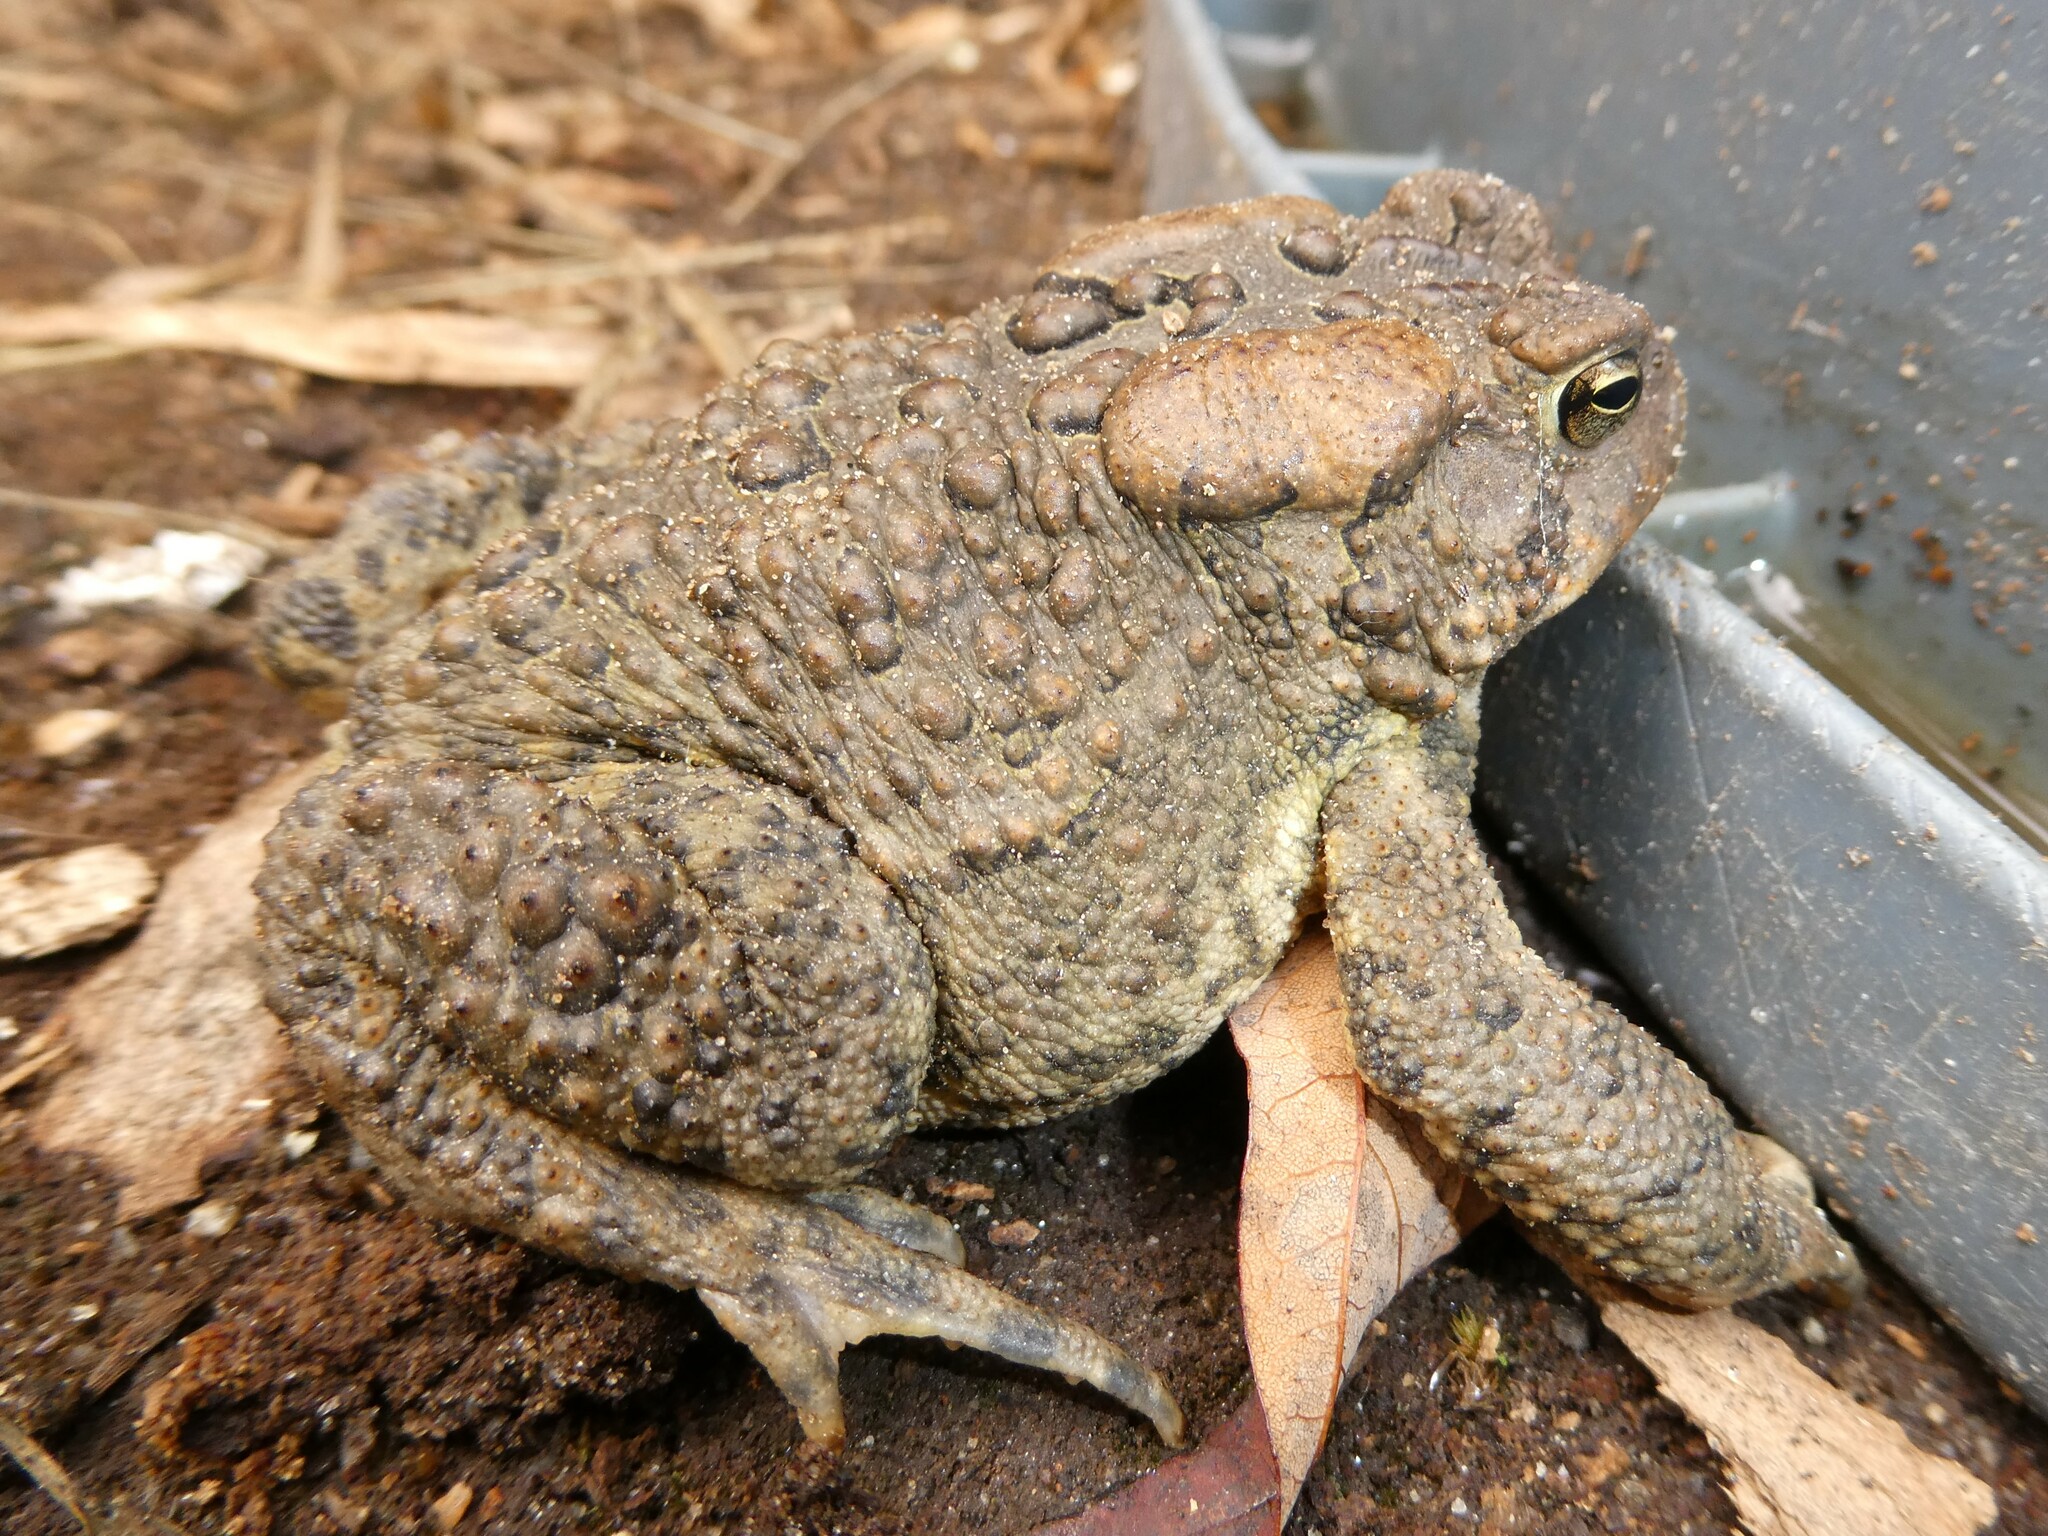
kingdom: Animalia
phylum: Chordata
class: Amphibia
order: Anura
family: Bufonidae
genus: Anaxyrus
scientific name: Anaxyrus americanus
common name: American toad
